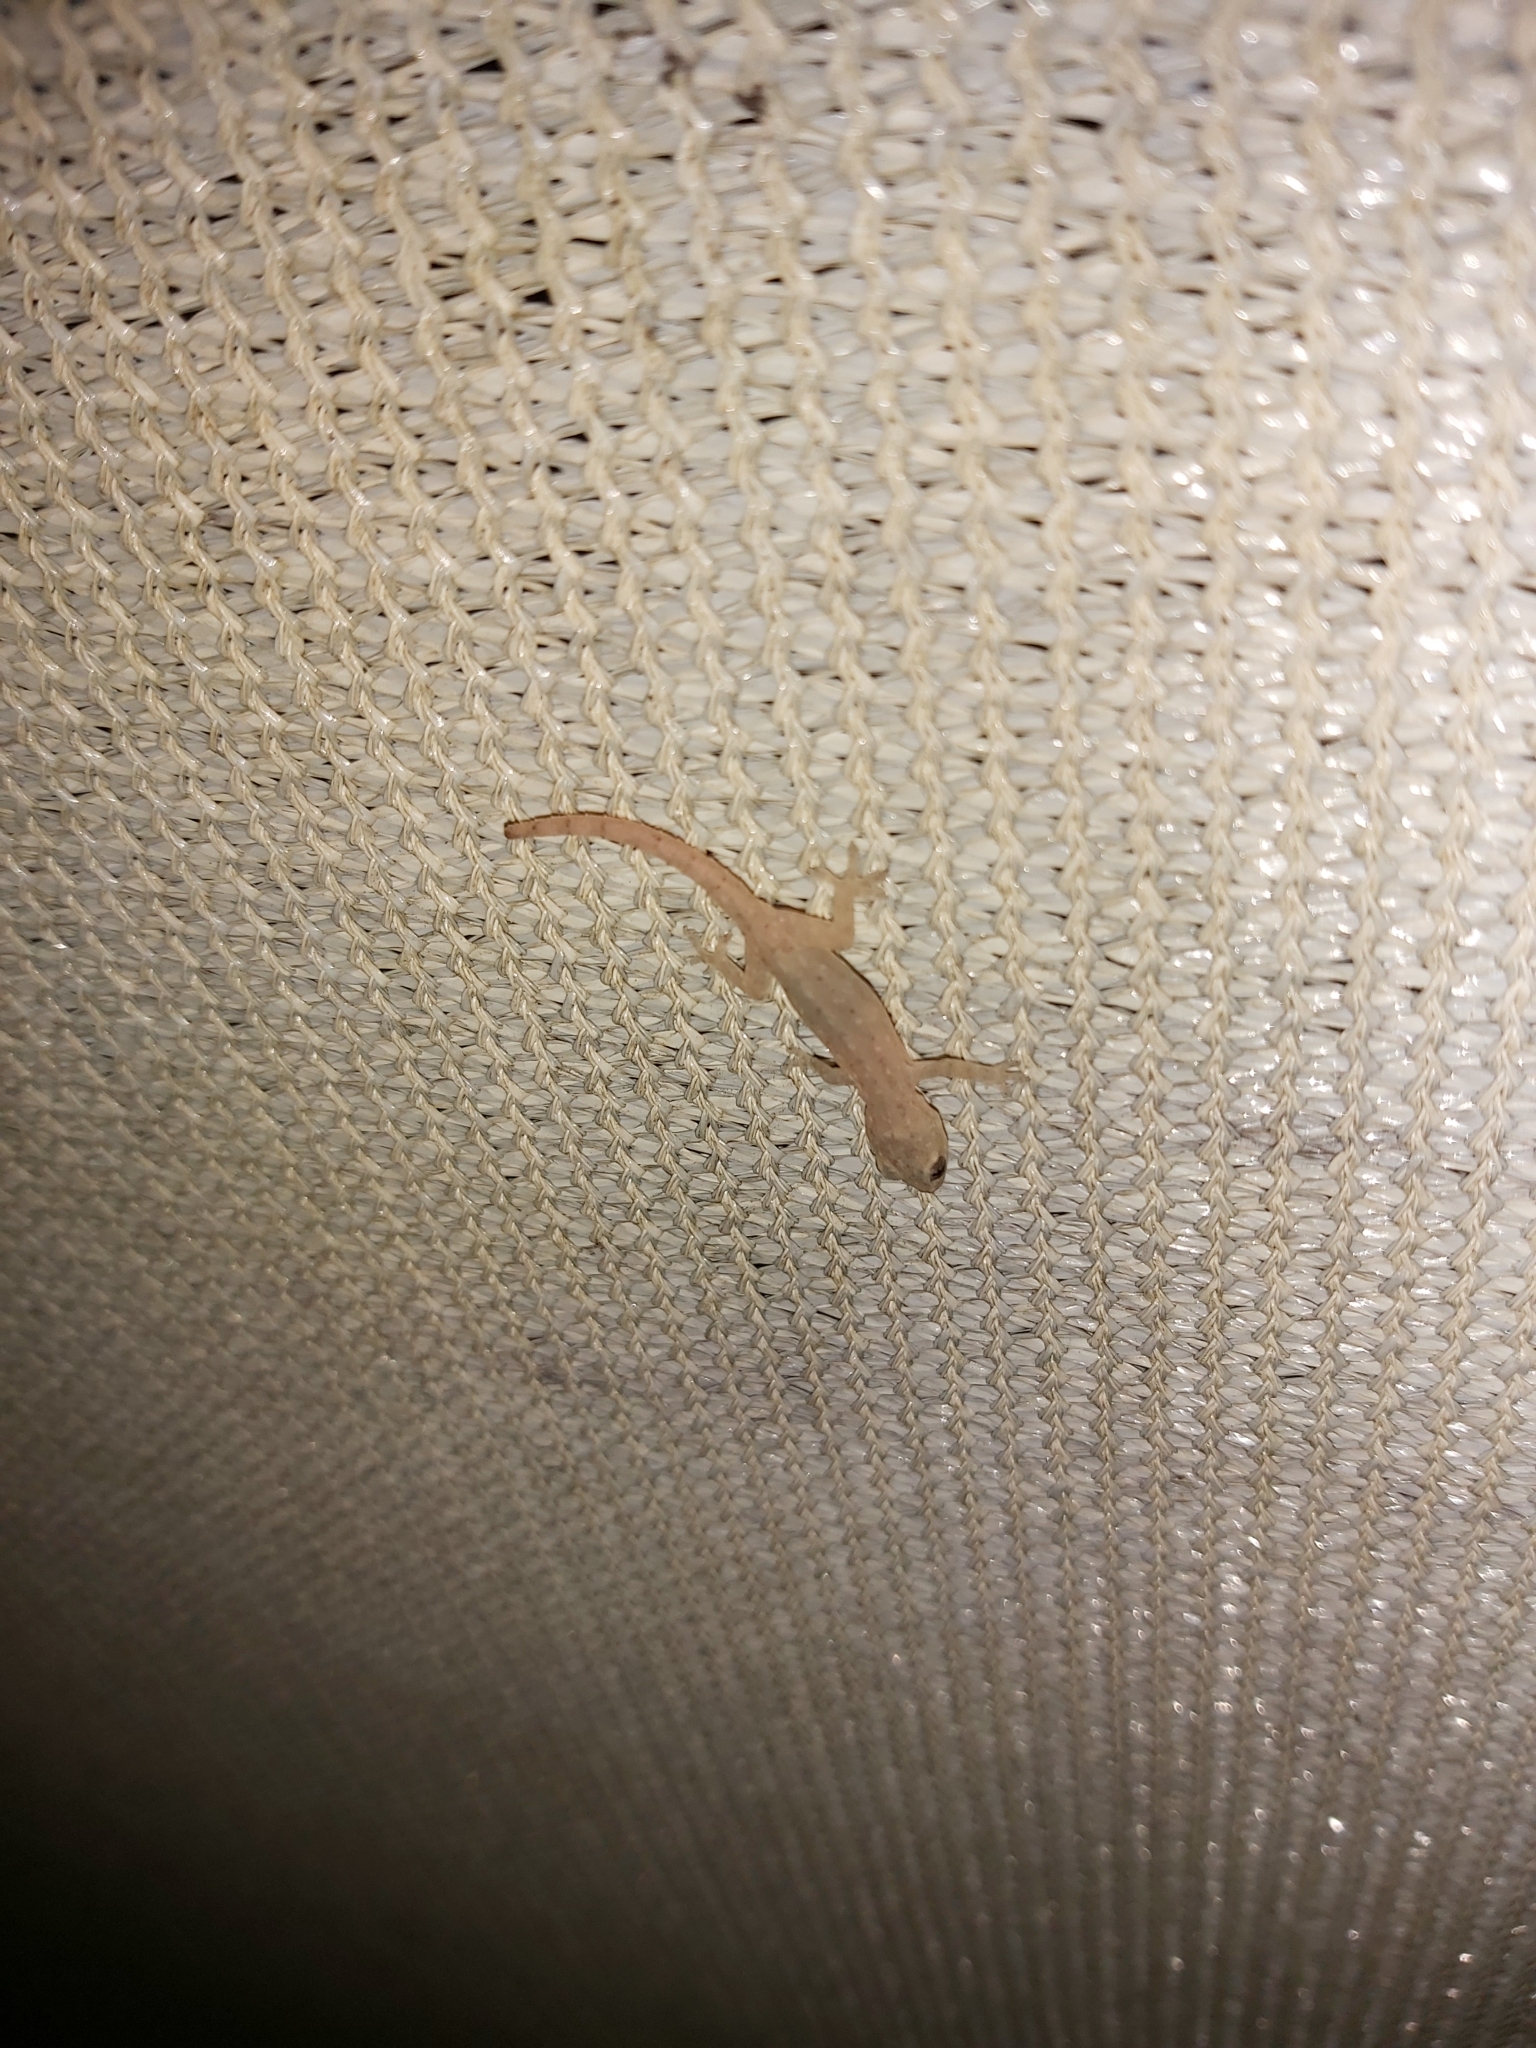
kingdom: Animalia
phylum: Chordata
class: Squamata
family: Gekkonidae
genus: Hemidactylus
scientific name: Hemidactylus frenatus
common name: Common house gecko
